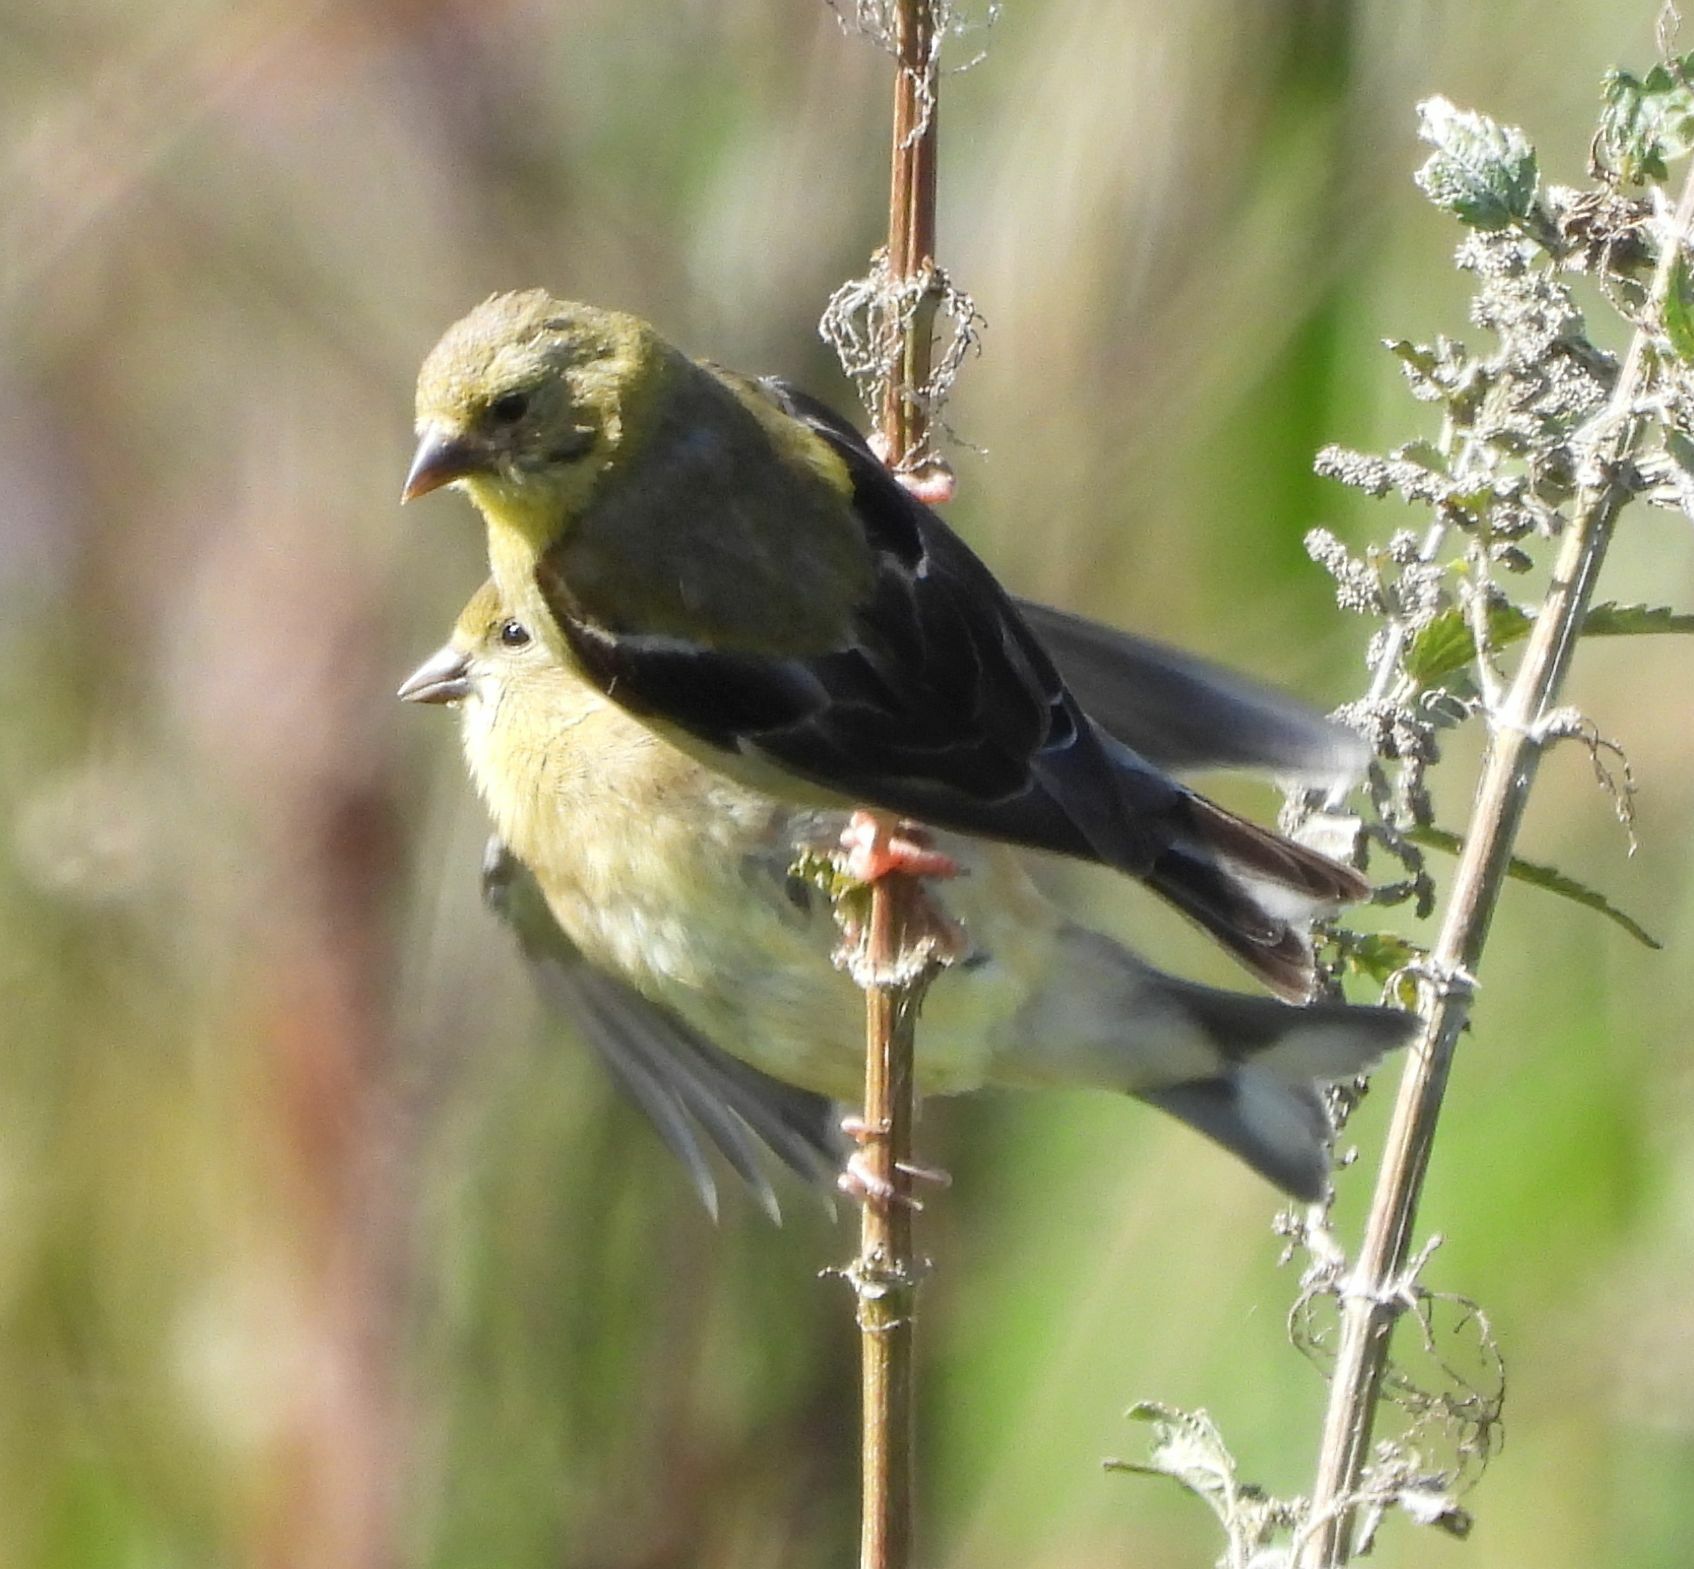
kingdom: Animalia
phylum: Chordata
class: Aves
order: Passeriformes
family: Fringillidae
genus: Spinus
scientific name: Spinus tristis
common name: American goldfinch
